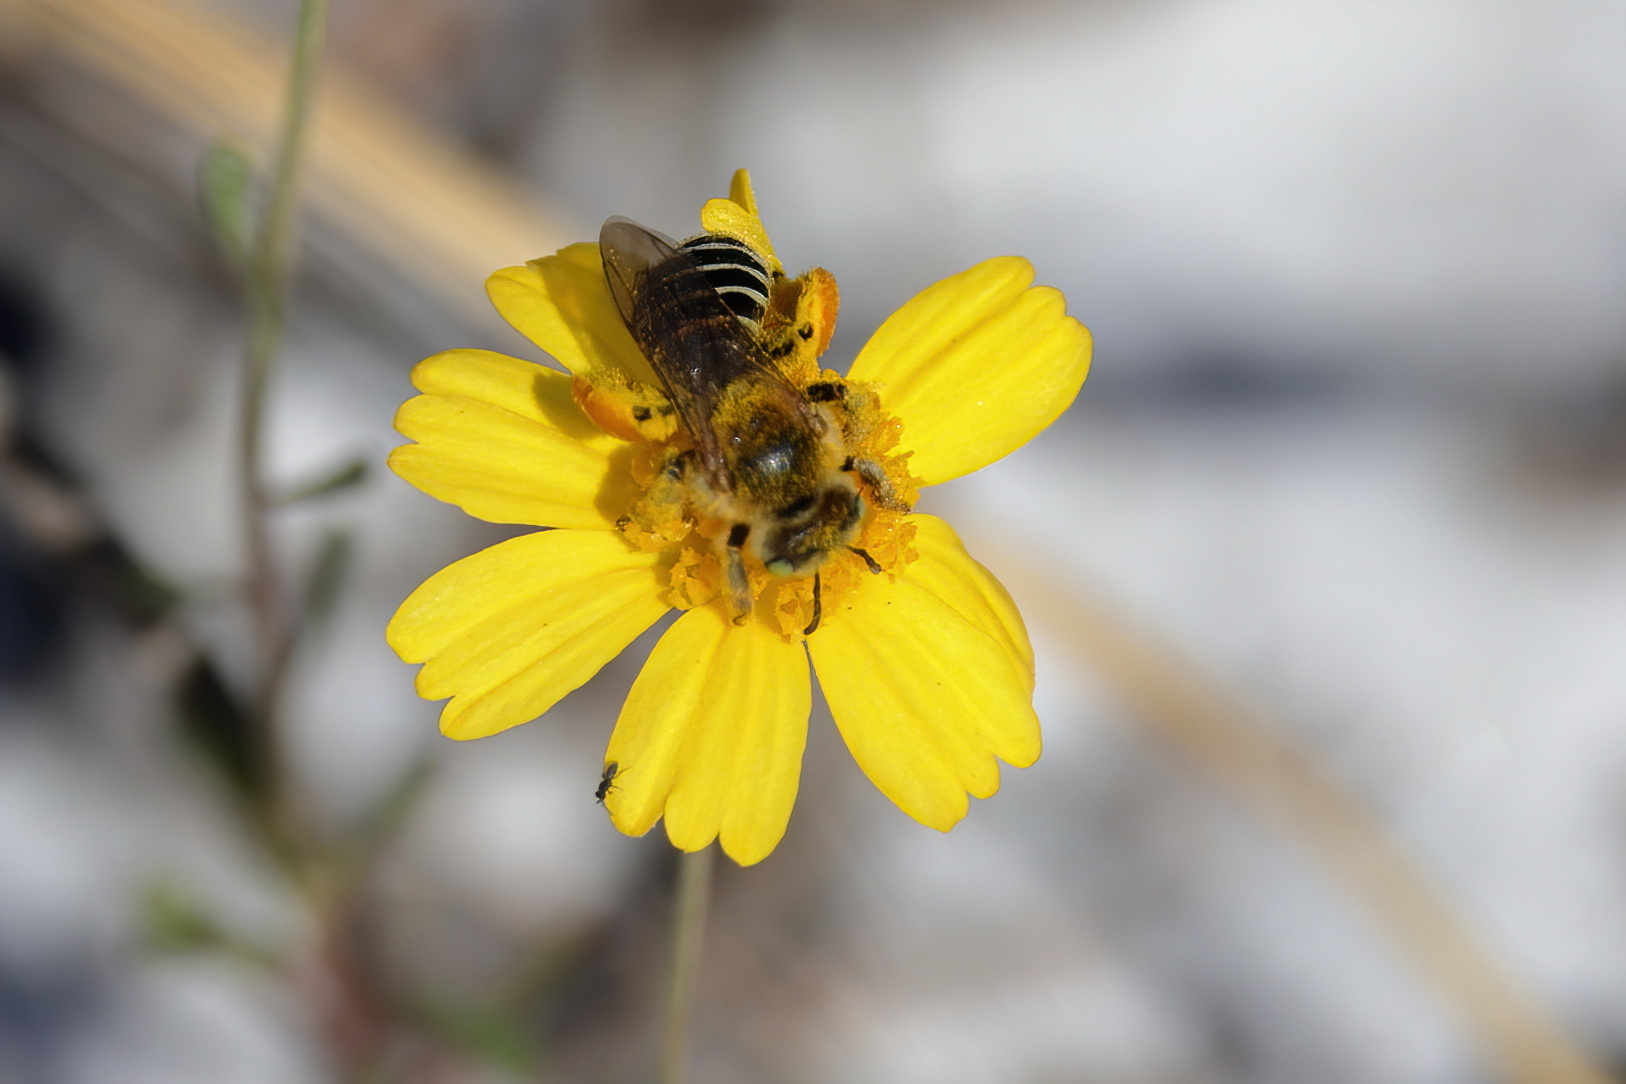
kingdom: Animalia
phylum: Arthropoda
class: Insecta
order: Hymenoptera
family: Melittidae
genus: Hesperapis
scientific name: Hesperapis oraria
